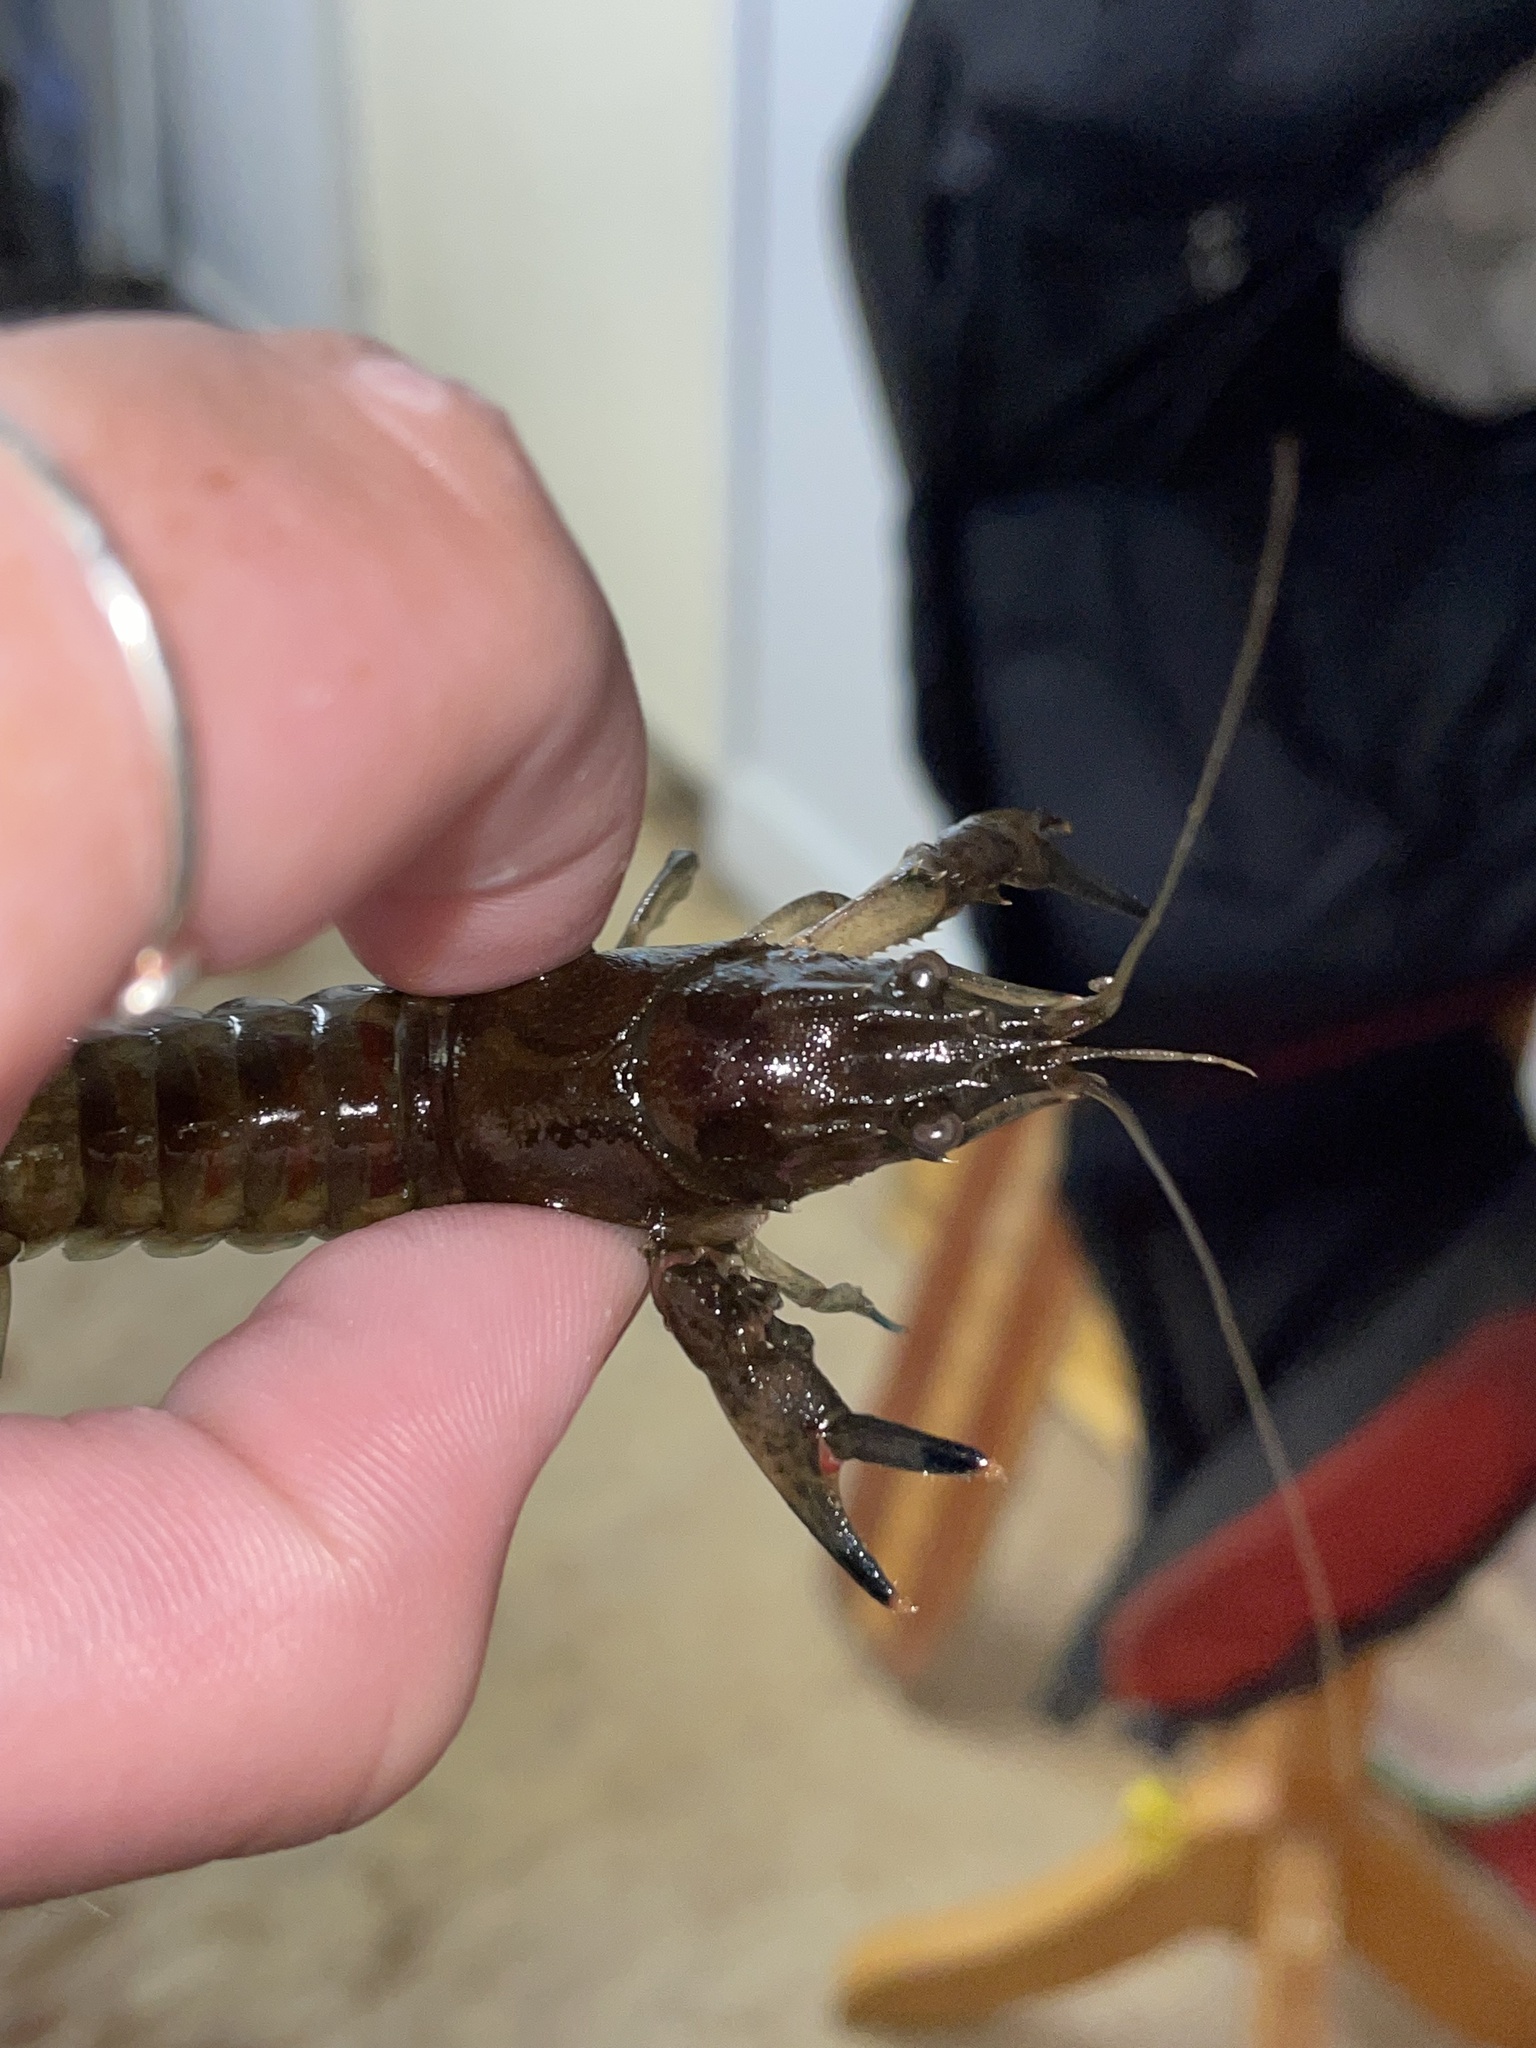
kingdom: Animalia
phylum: Arthropoda
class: Malacostraca
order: Decapoda
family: Cambaridae
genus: Faxonius
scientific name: Faxonius limosus
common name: American crayfish
